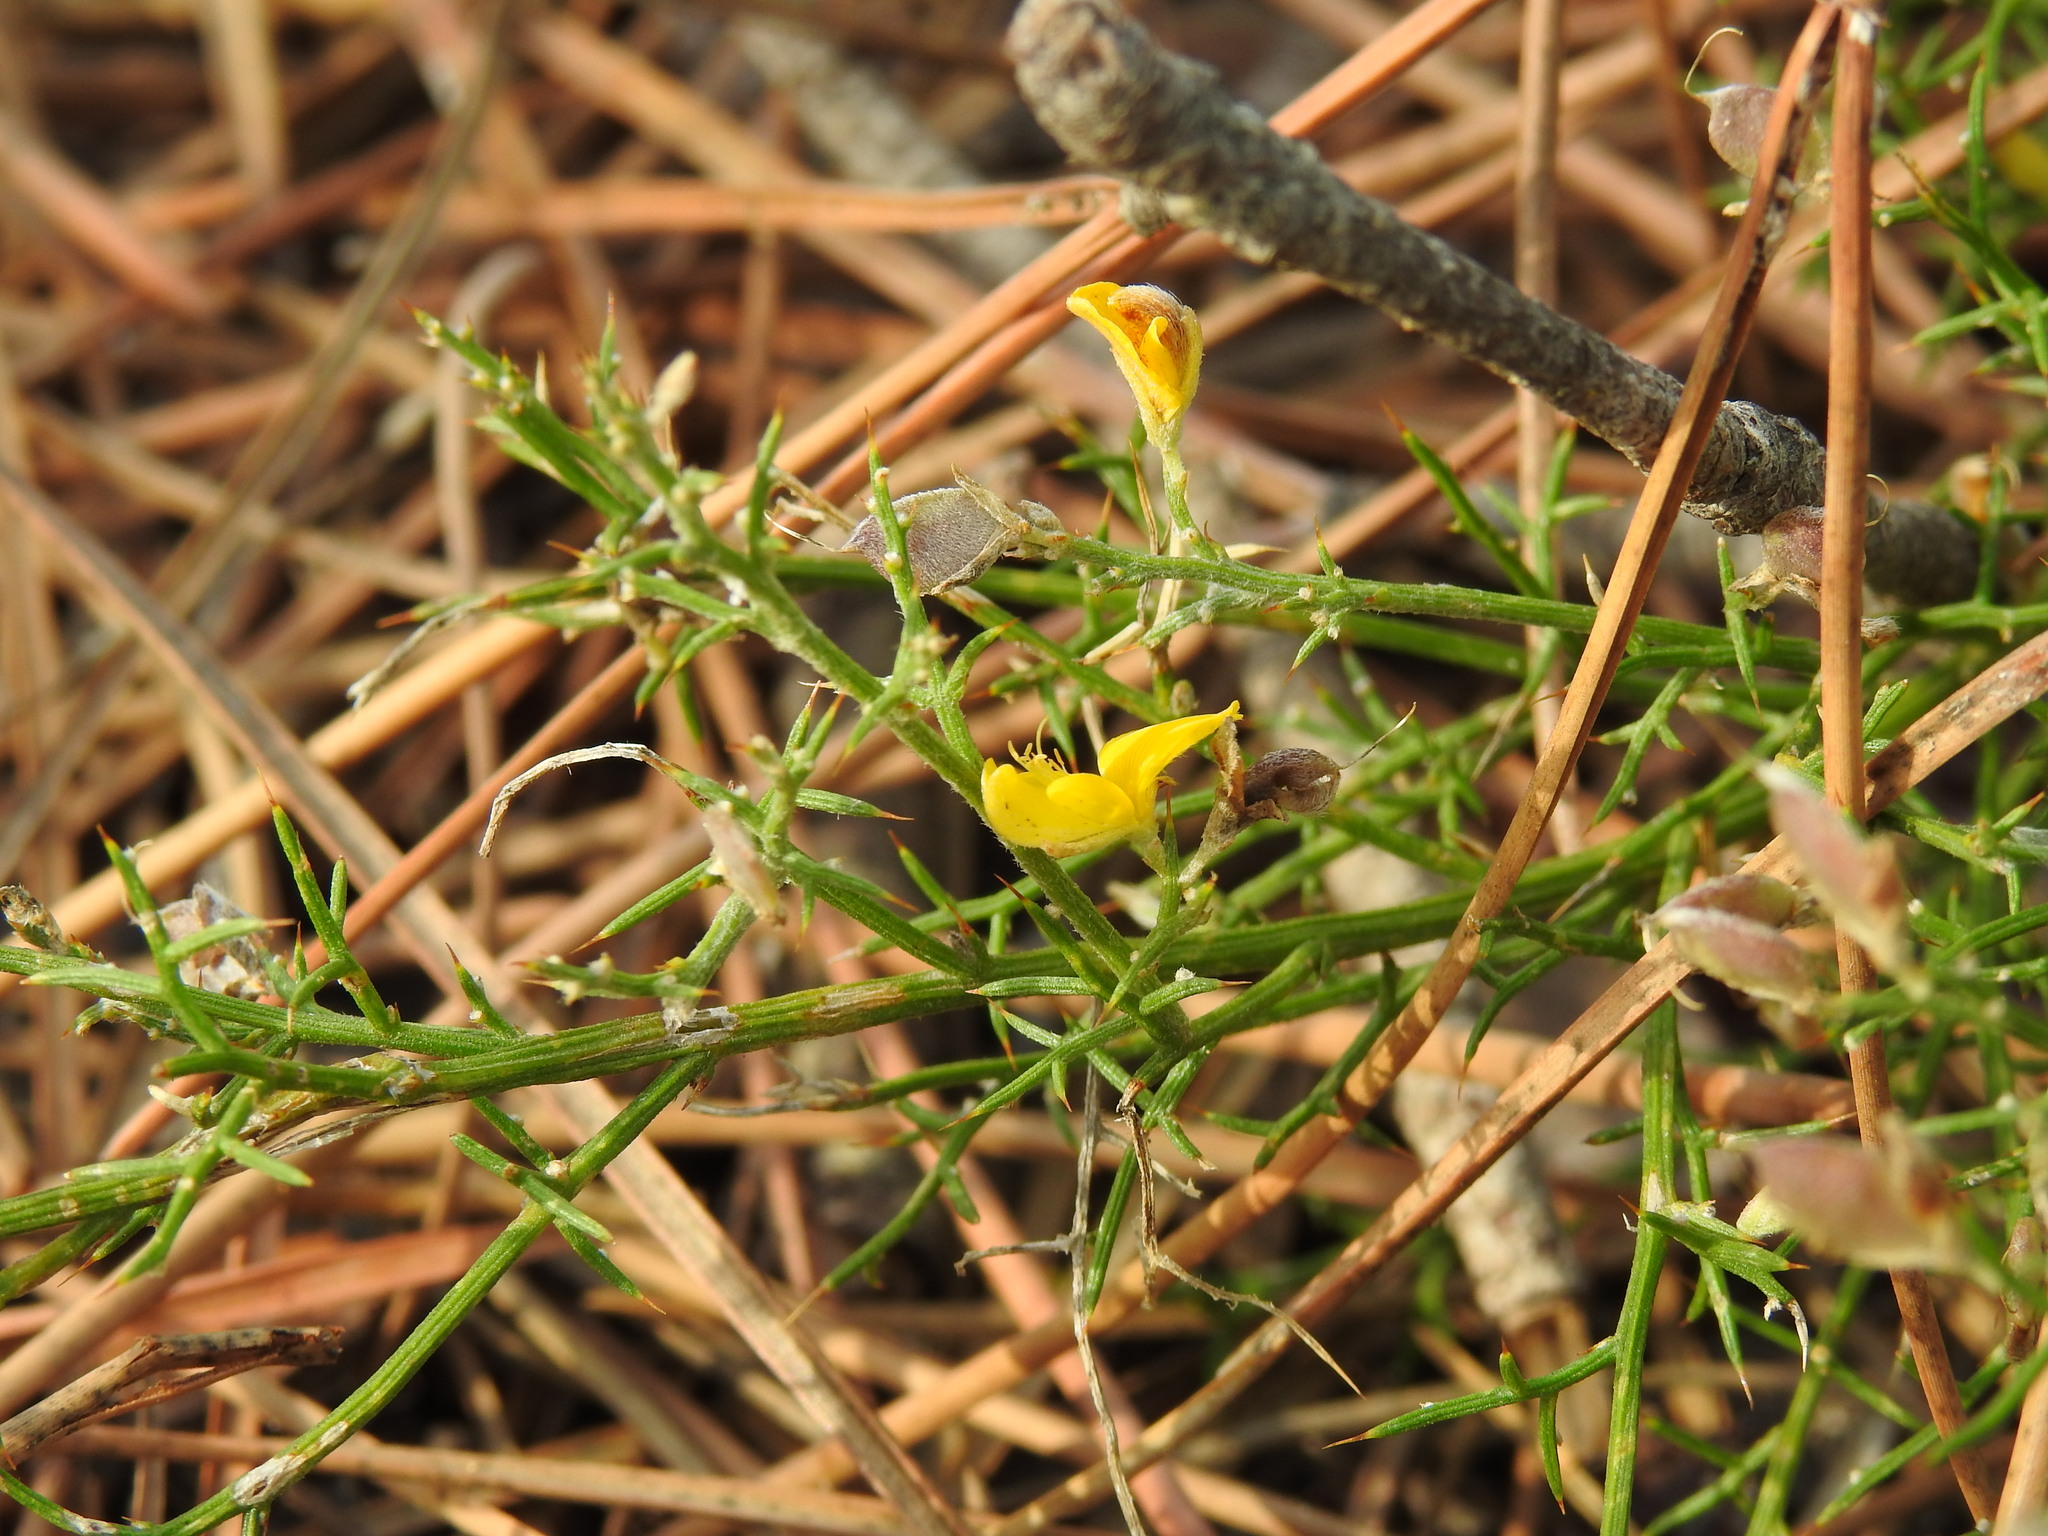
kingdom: Plantae
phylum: Tracheophyta
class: Magnoliopsida
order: Fabales
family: Fabaceae
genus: Stauracanthus
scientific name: Stauracanthus boivinii
